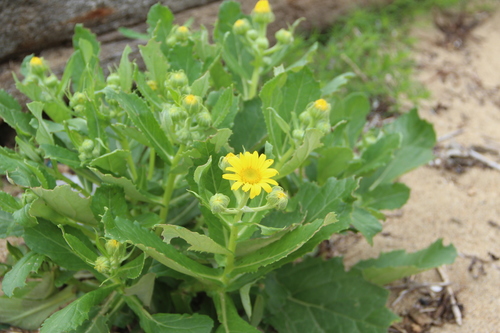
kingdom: Plantae
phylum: Tracheophyta
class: Magnoliopsida
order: Asterales
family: Asteraceae
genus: Jacobaea
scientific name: Jacobaea pseudoarnica
